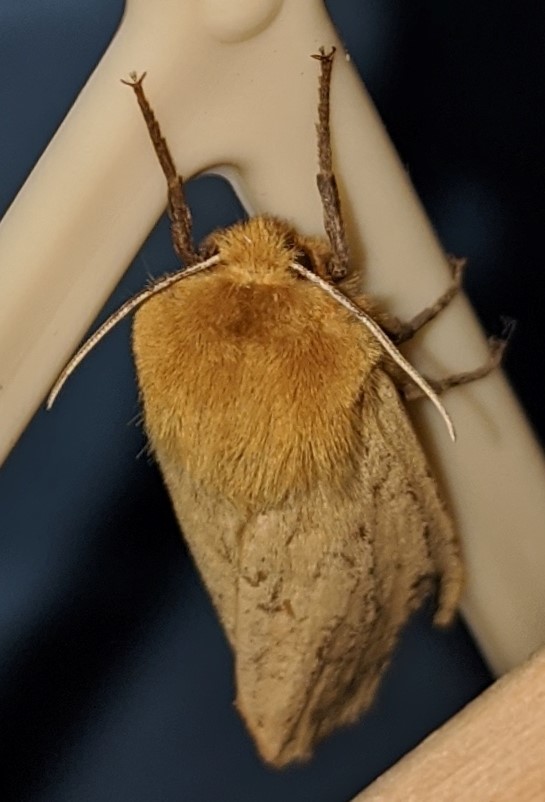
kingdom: Animalia
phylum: Arthropoda
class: Insecta
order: Lepidoptera
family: Erebidae
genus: Pyrrharctia
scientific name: Pyrrharctia isabella
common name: Isabella tiger moth
